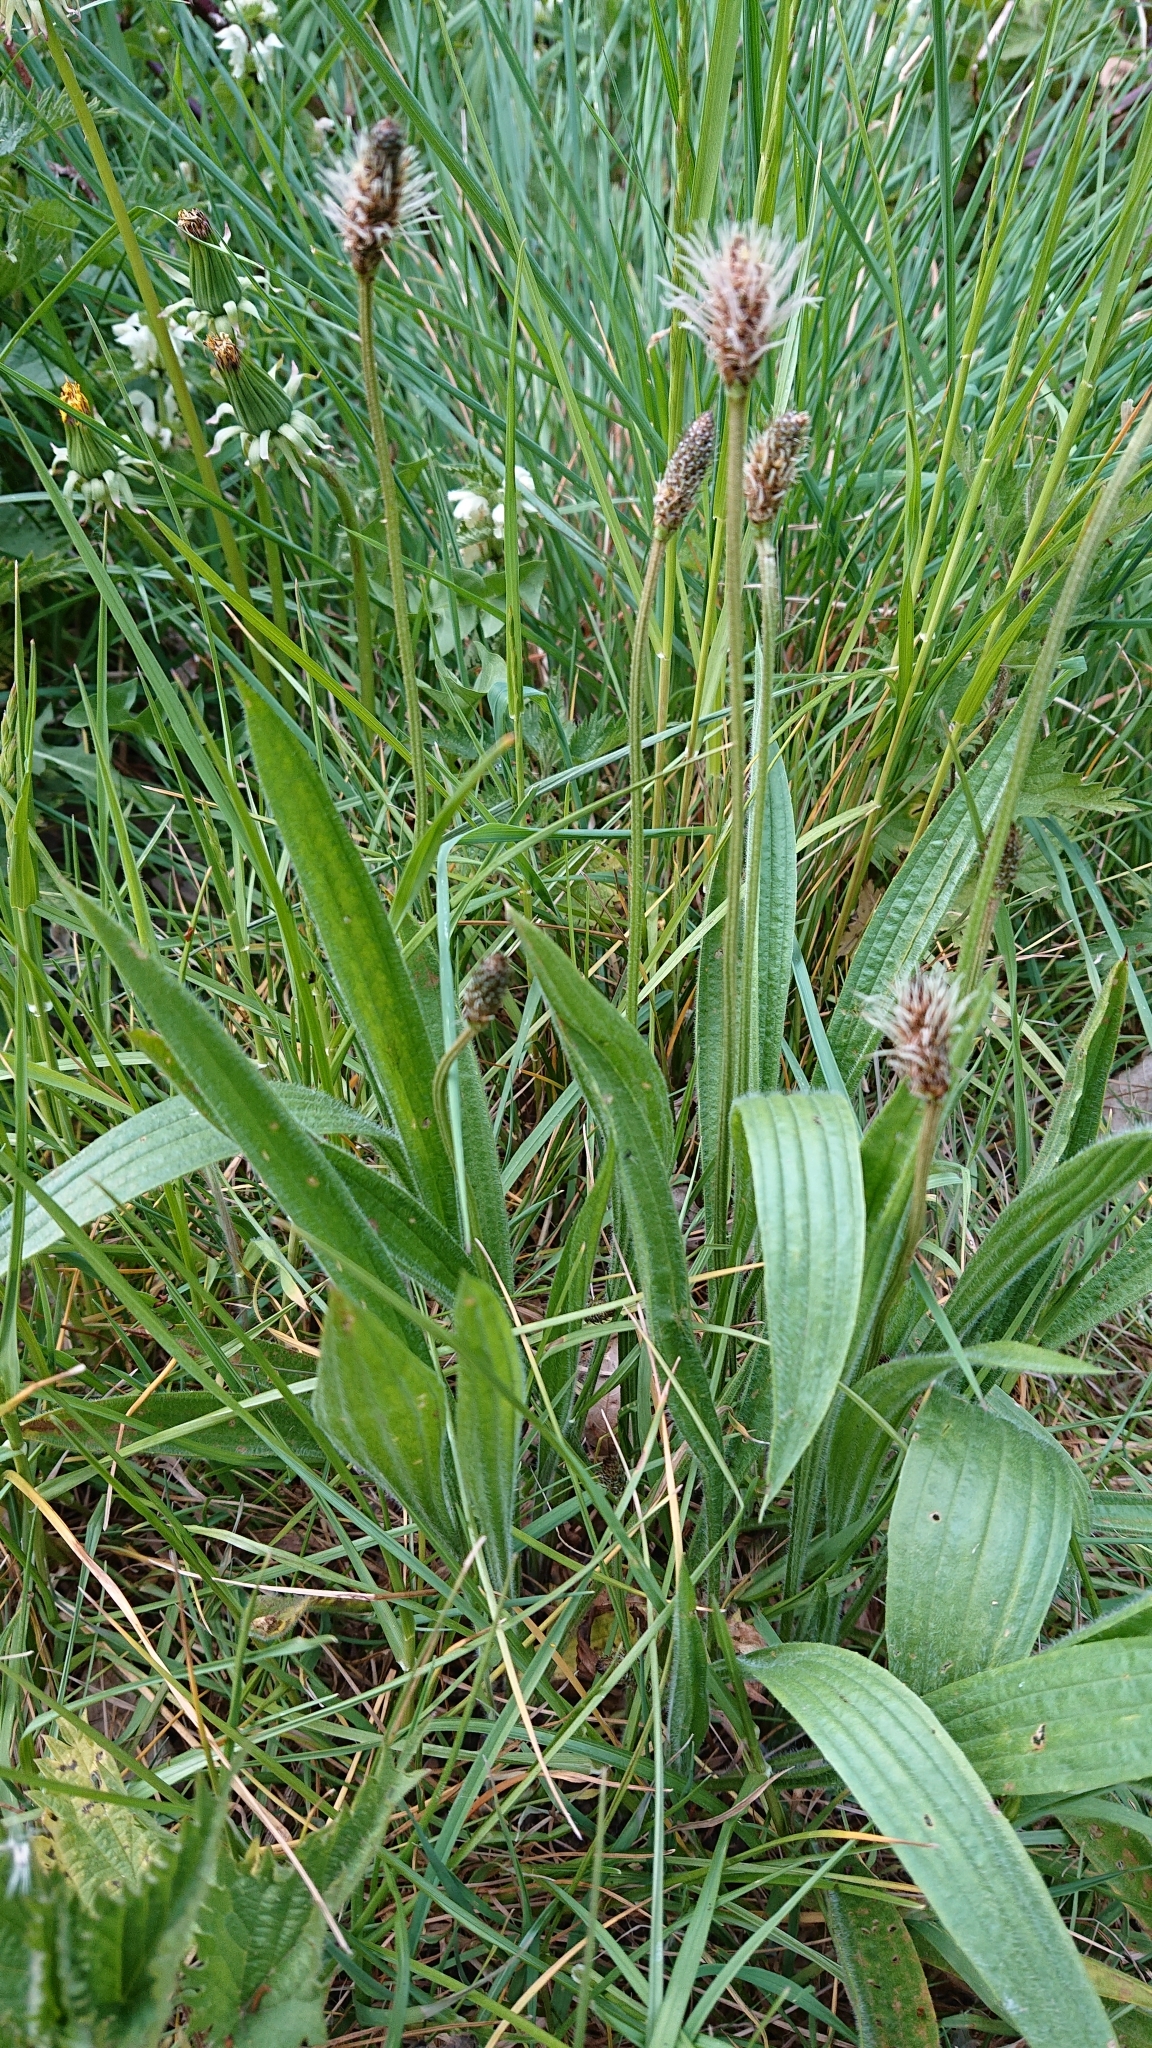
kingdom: Plantae
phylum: Tracheophyta
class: Magnoliopsida
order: Lamiales
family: Plantaginaceae
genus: Plantago
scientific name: Plantago lanceolata
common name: Ribwort plantain
